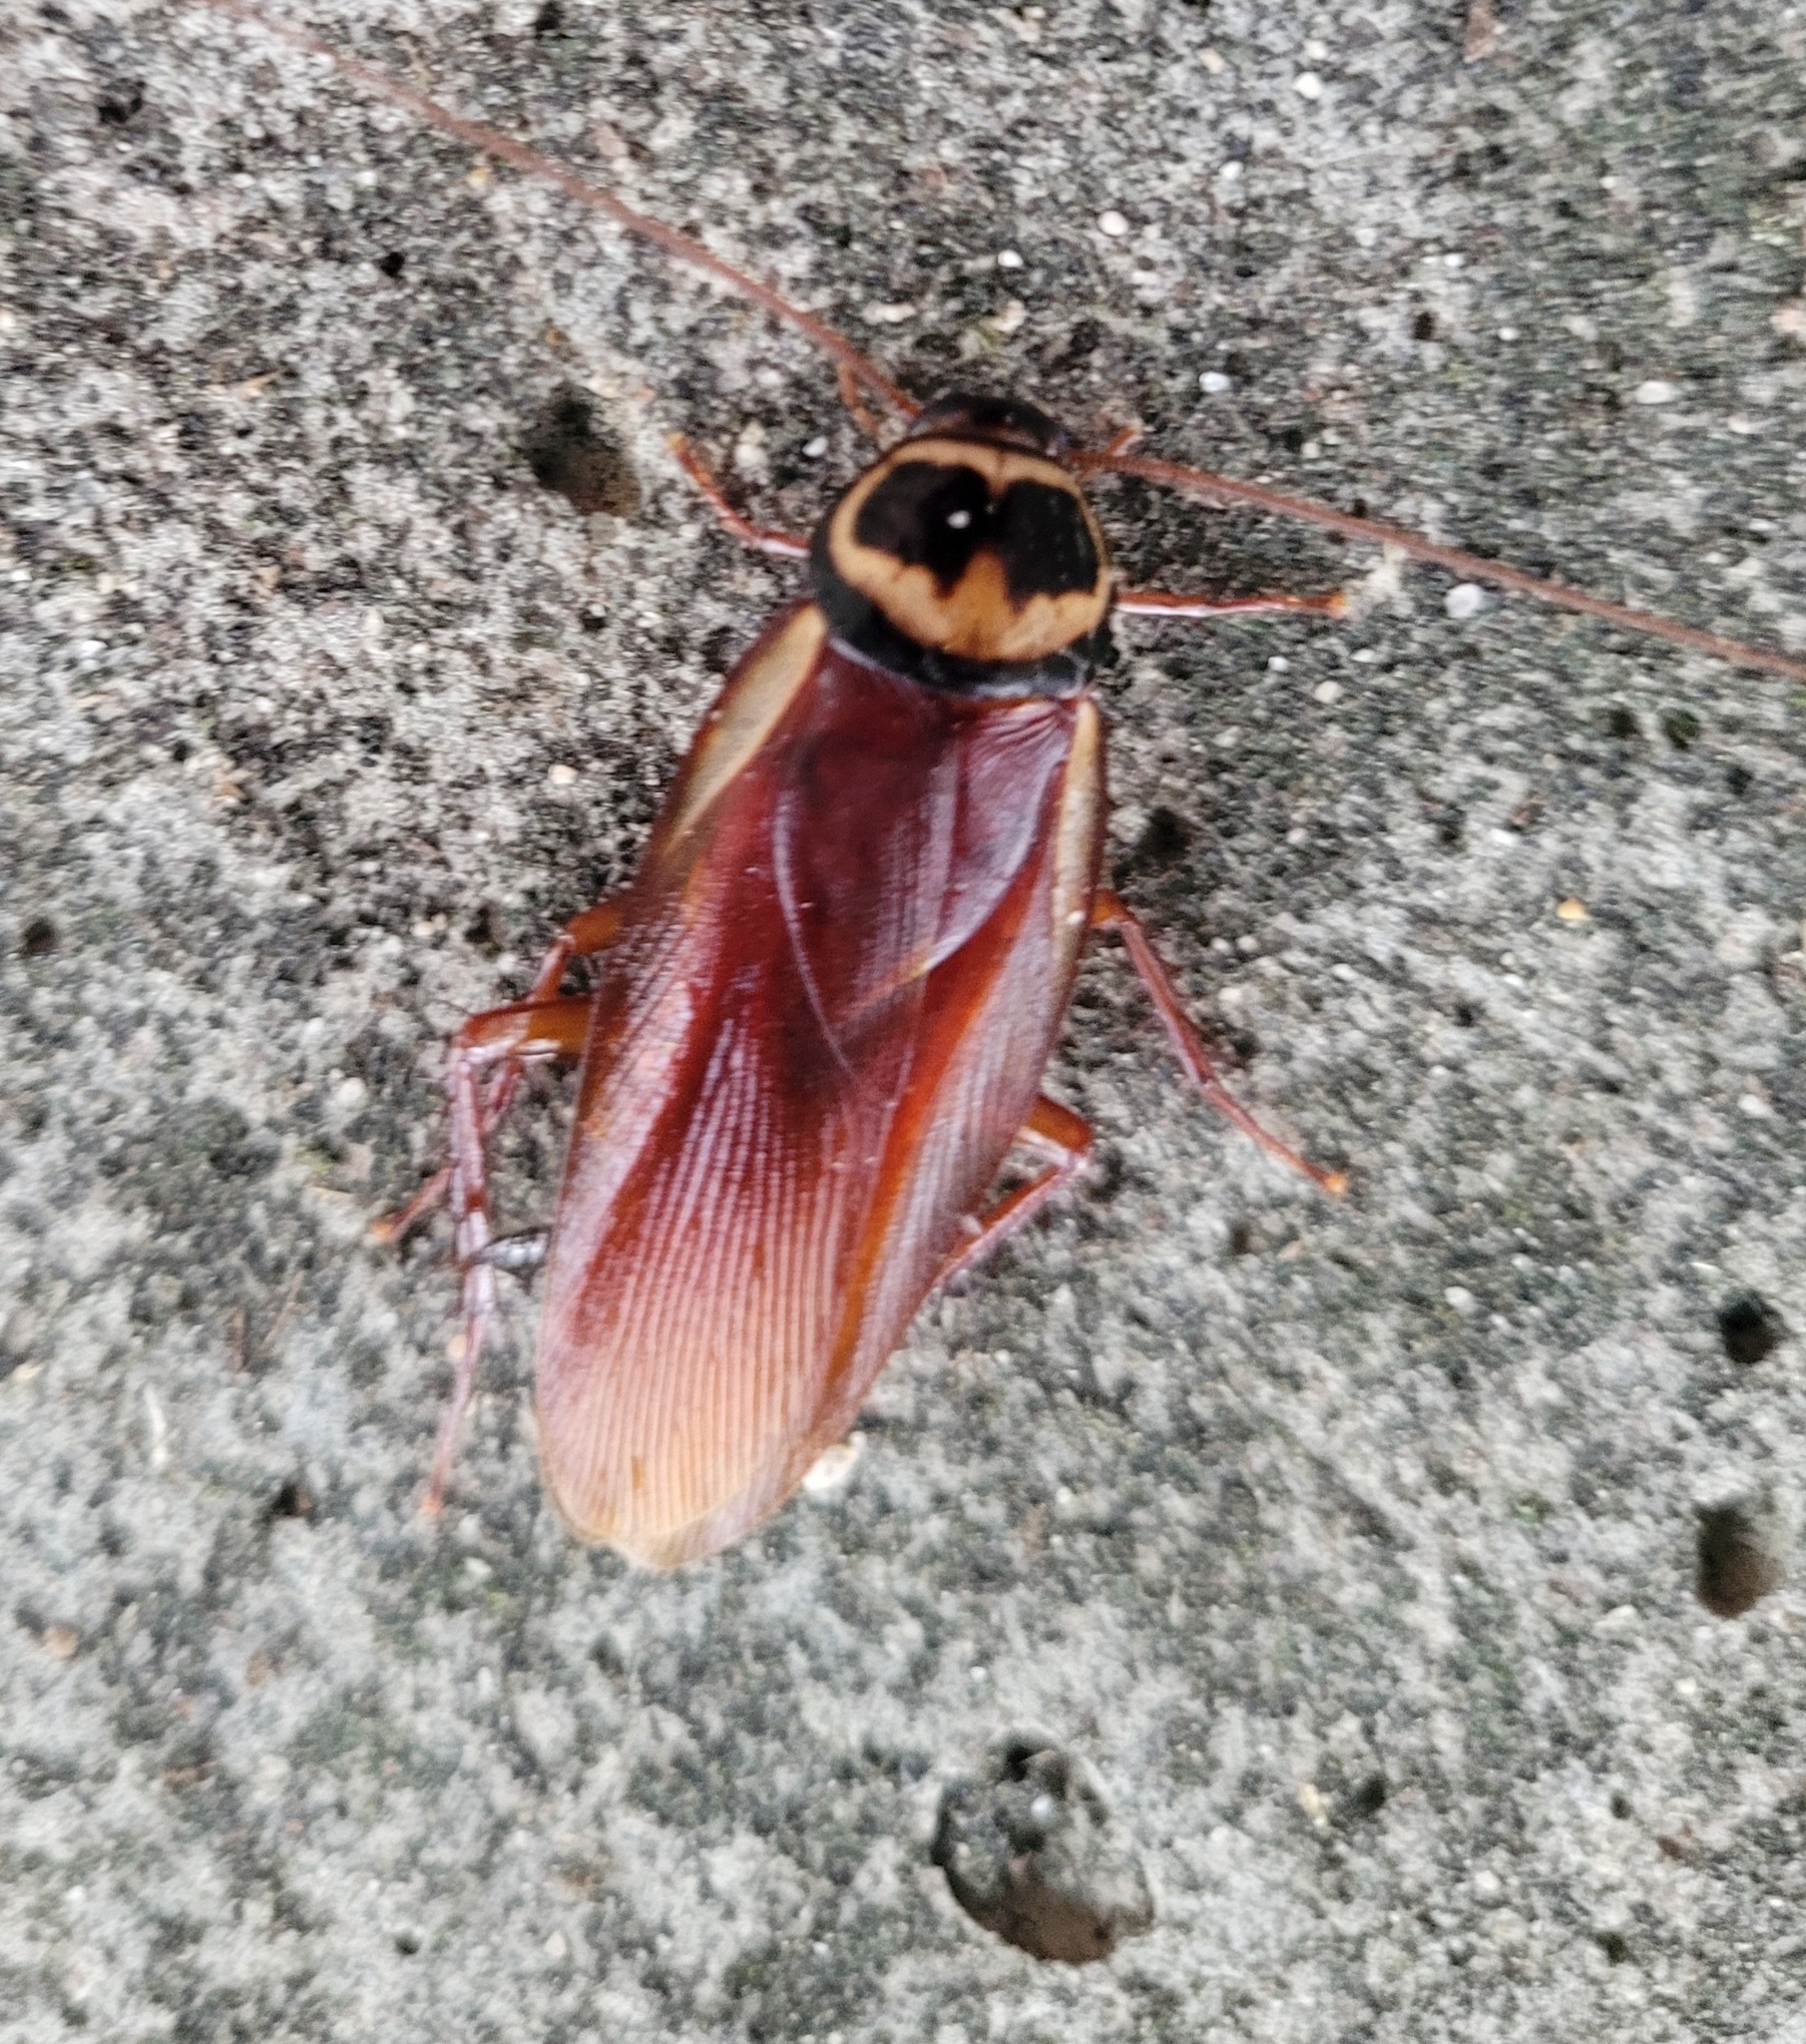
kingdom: Animalia
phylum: Arthropoda
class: Insecta
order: Blattodea
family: Blattidae
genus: Periplaneta
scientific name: Periplaneta australasiae
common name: Australian cockroach
